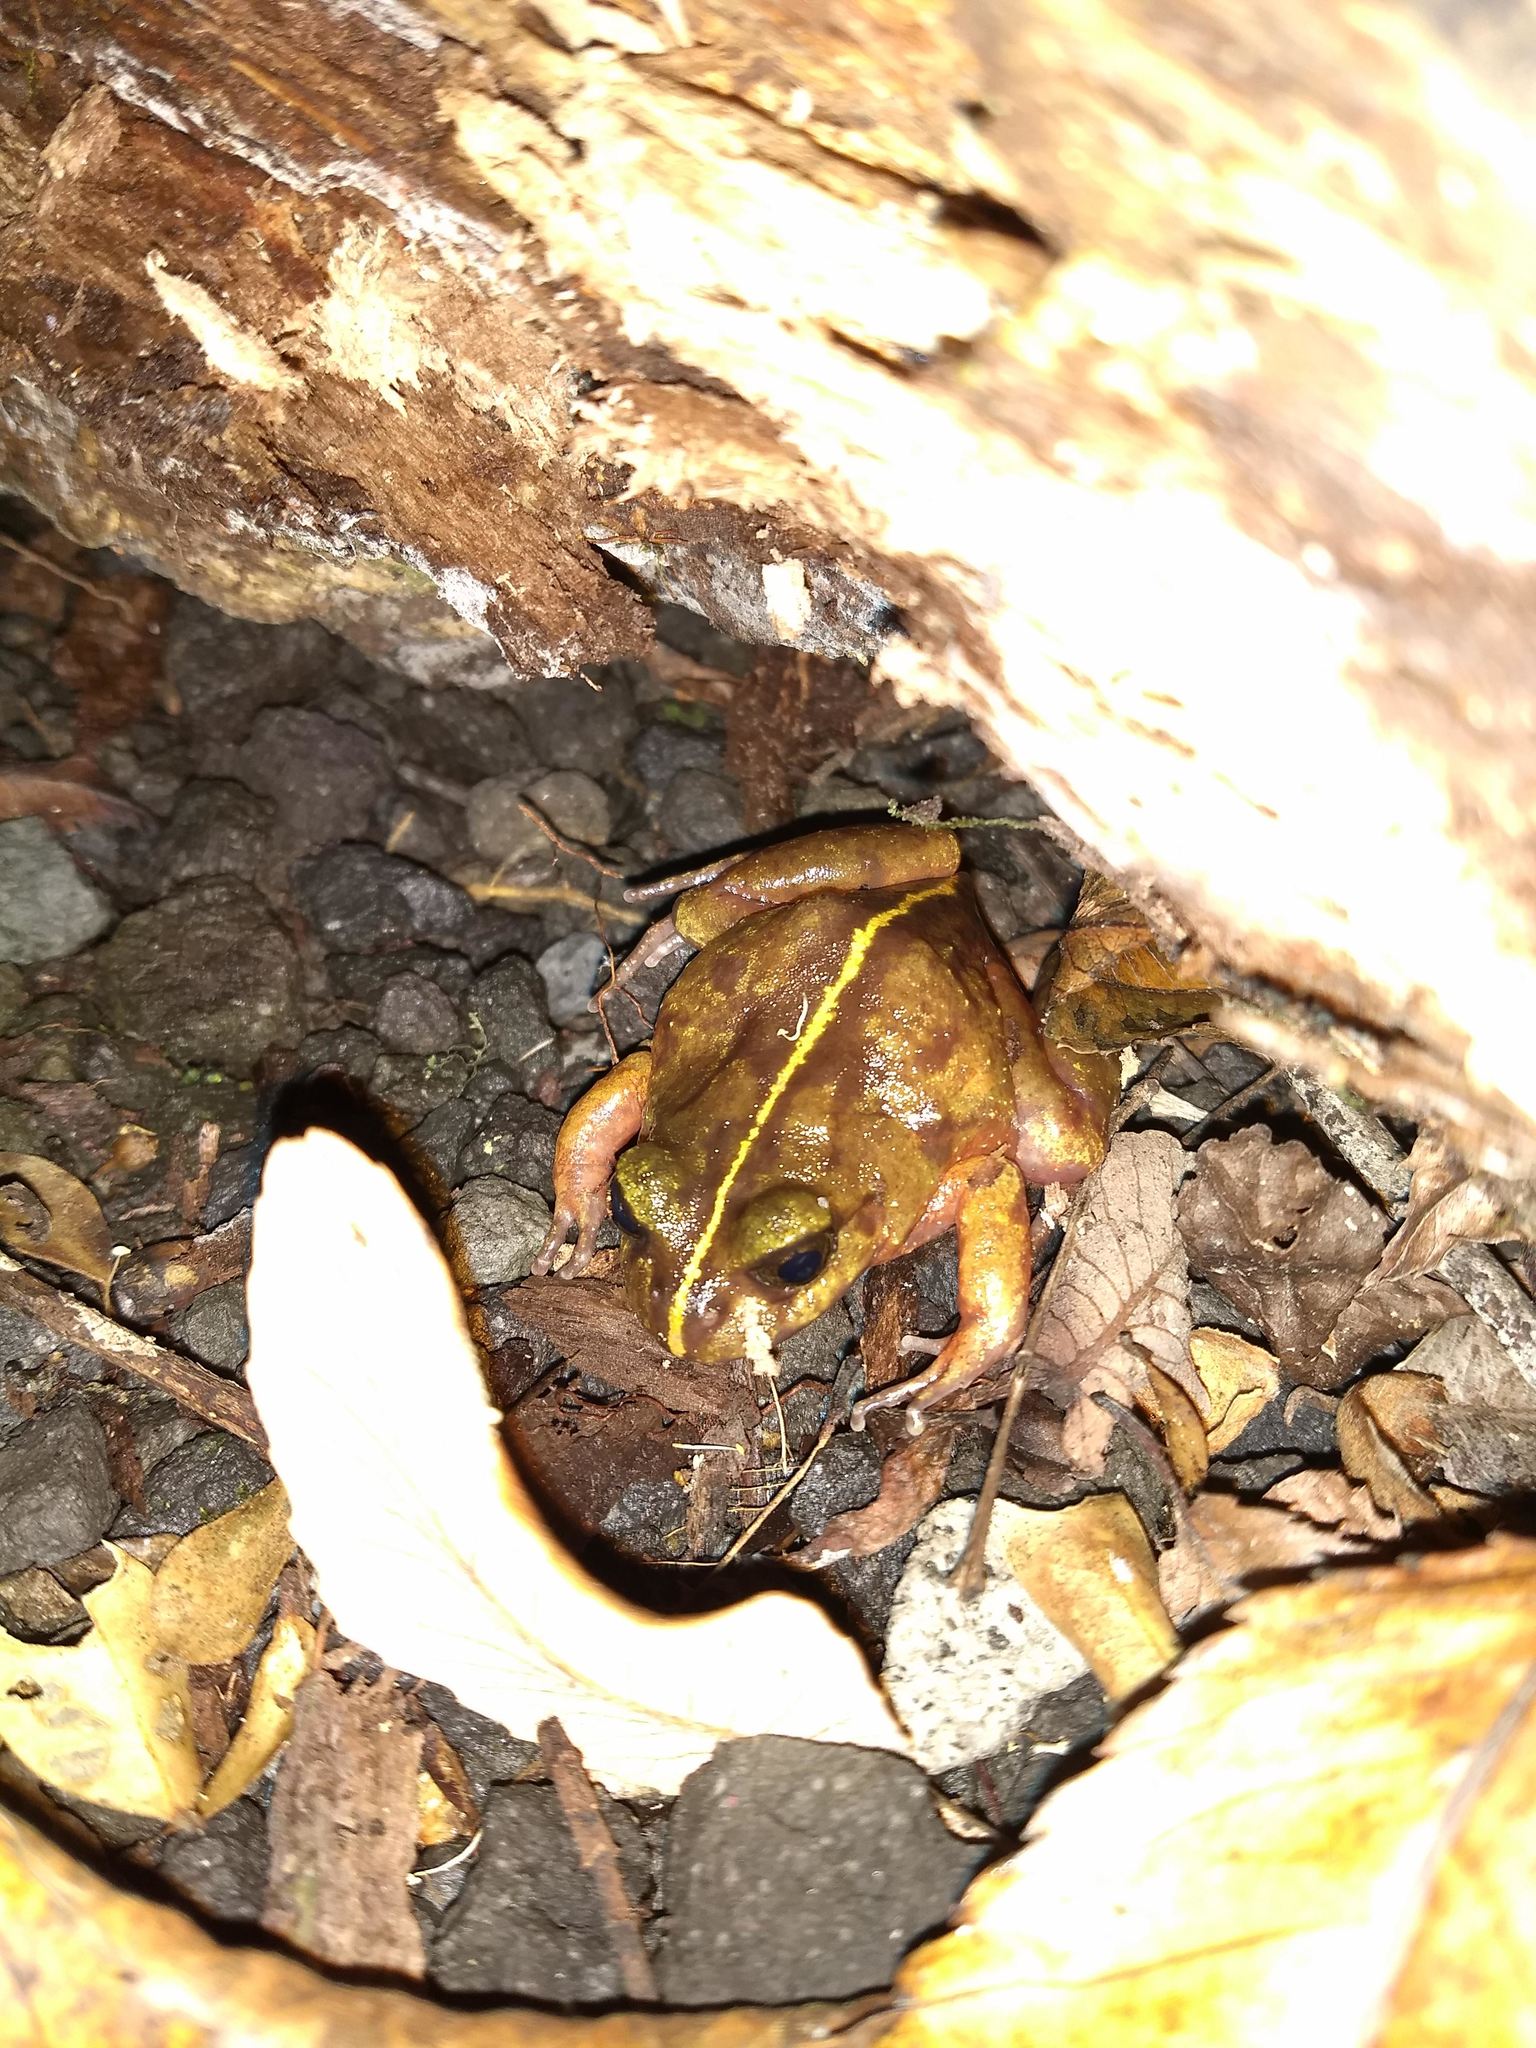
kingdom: Animalia
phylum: Chordata
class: Amphibia
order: Anura
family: Alsodidae
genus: Eupsophus
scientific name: Eupsophus emiliopugini
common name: Emilio's ground frog
